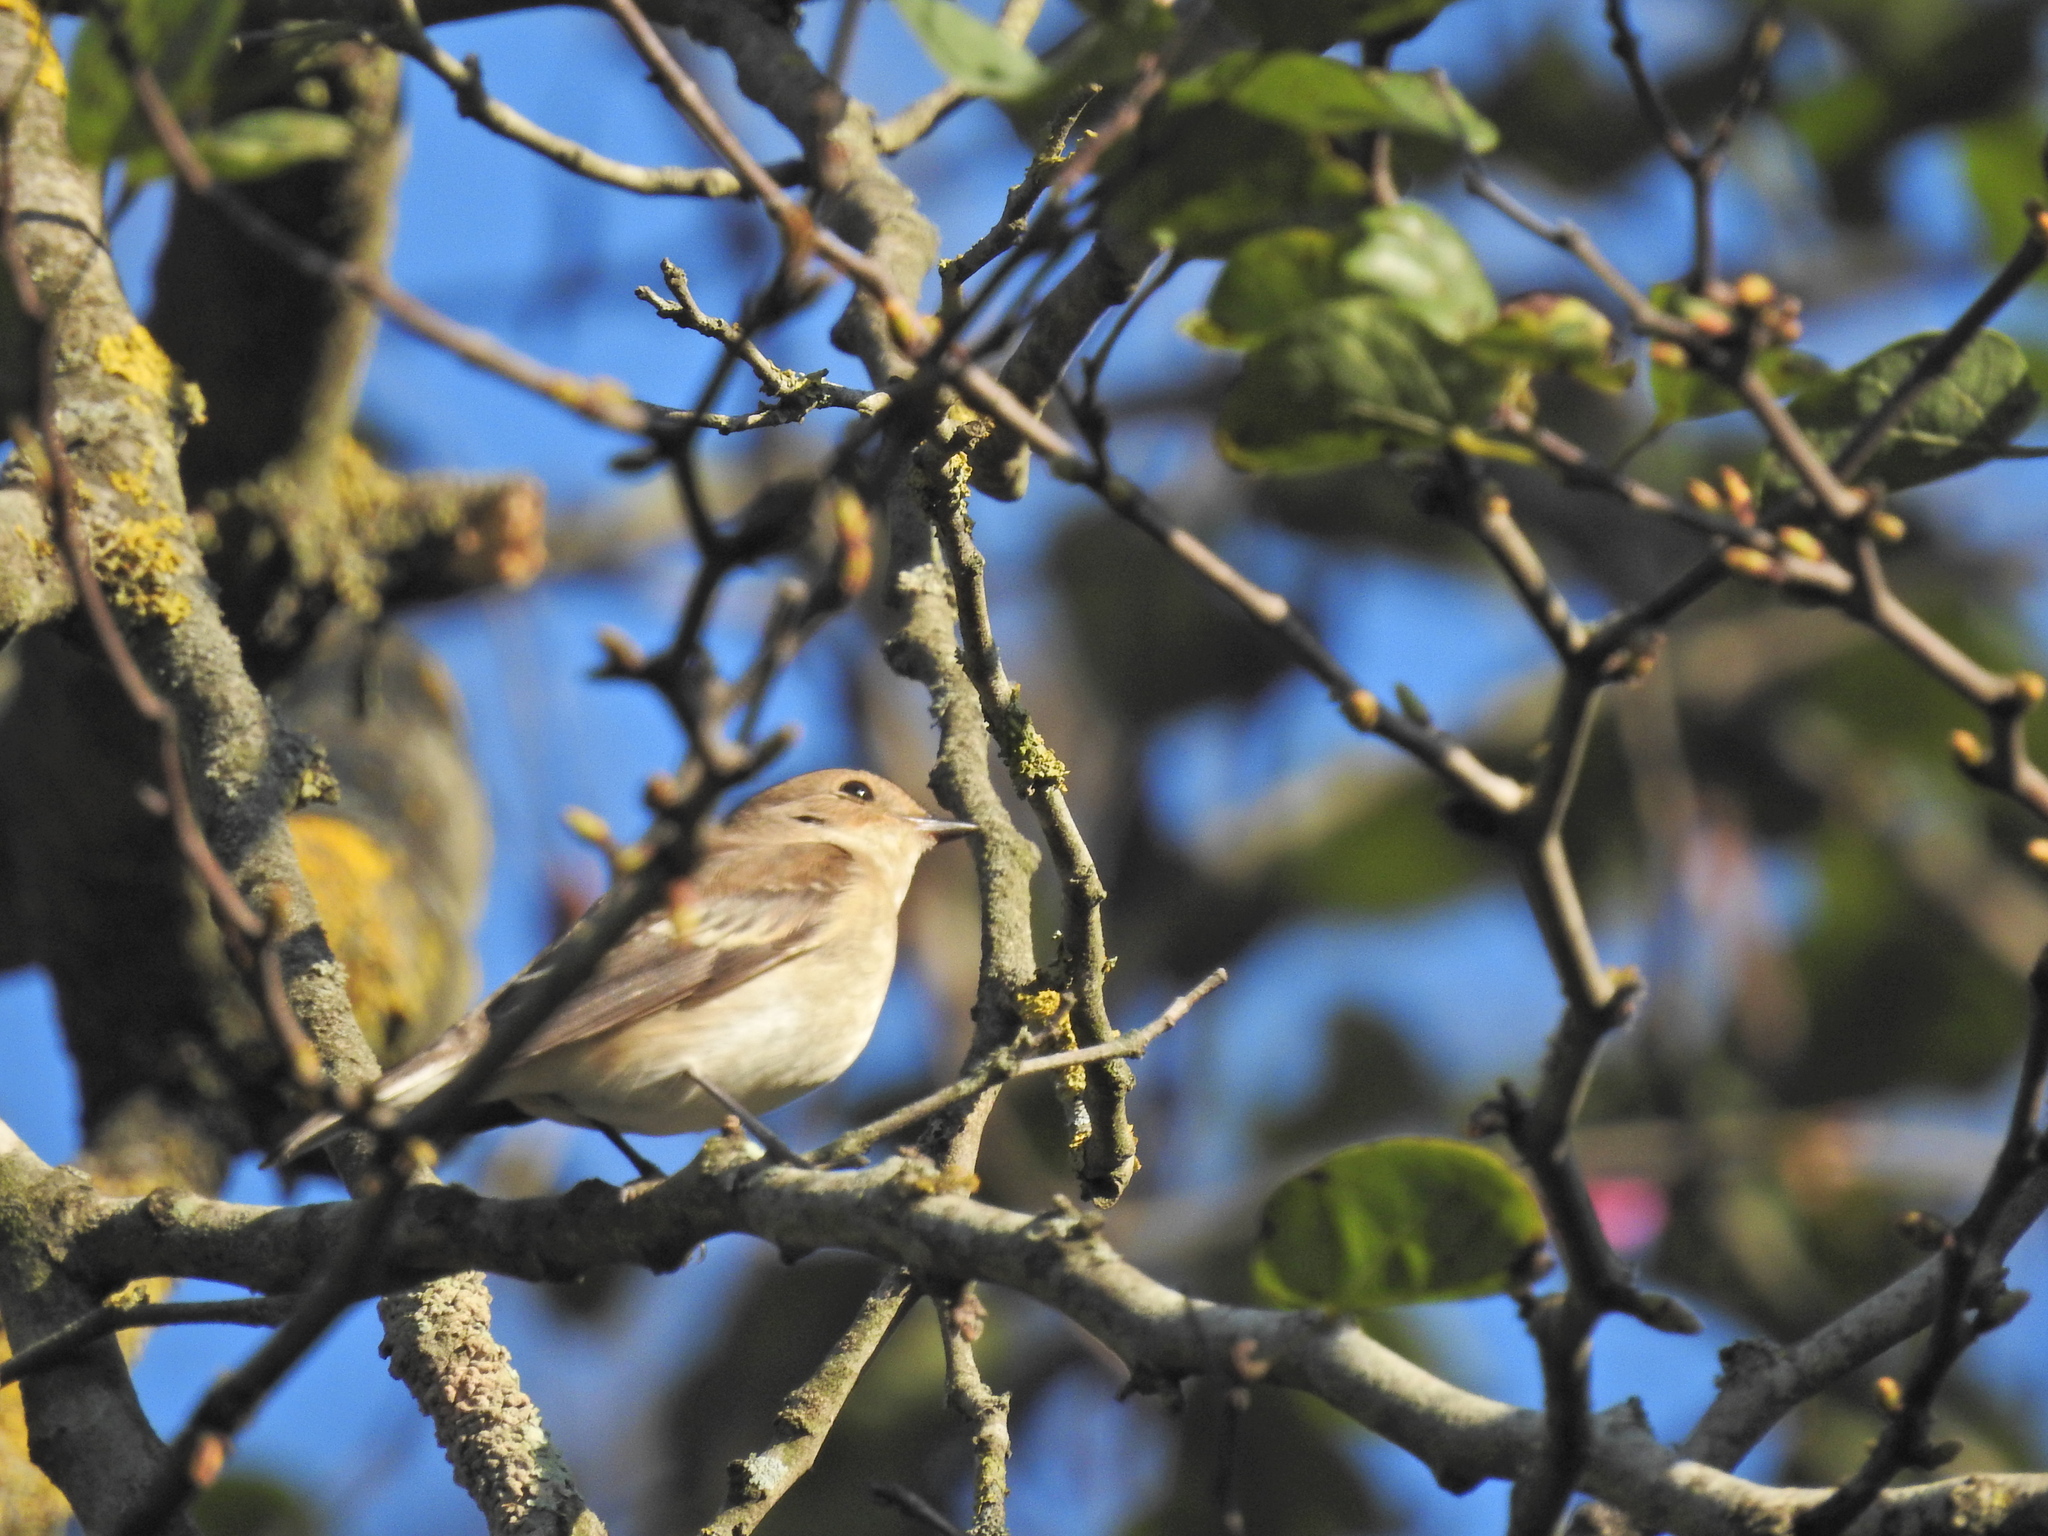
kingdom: Animalia
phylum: Chordata
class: Aves
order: Passeriformes
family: Muscicapidae
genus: Ficedula
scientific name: Ficedula hypoleuca
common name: European pied flycatcher
